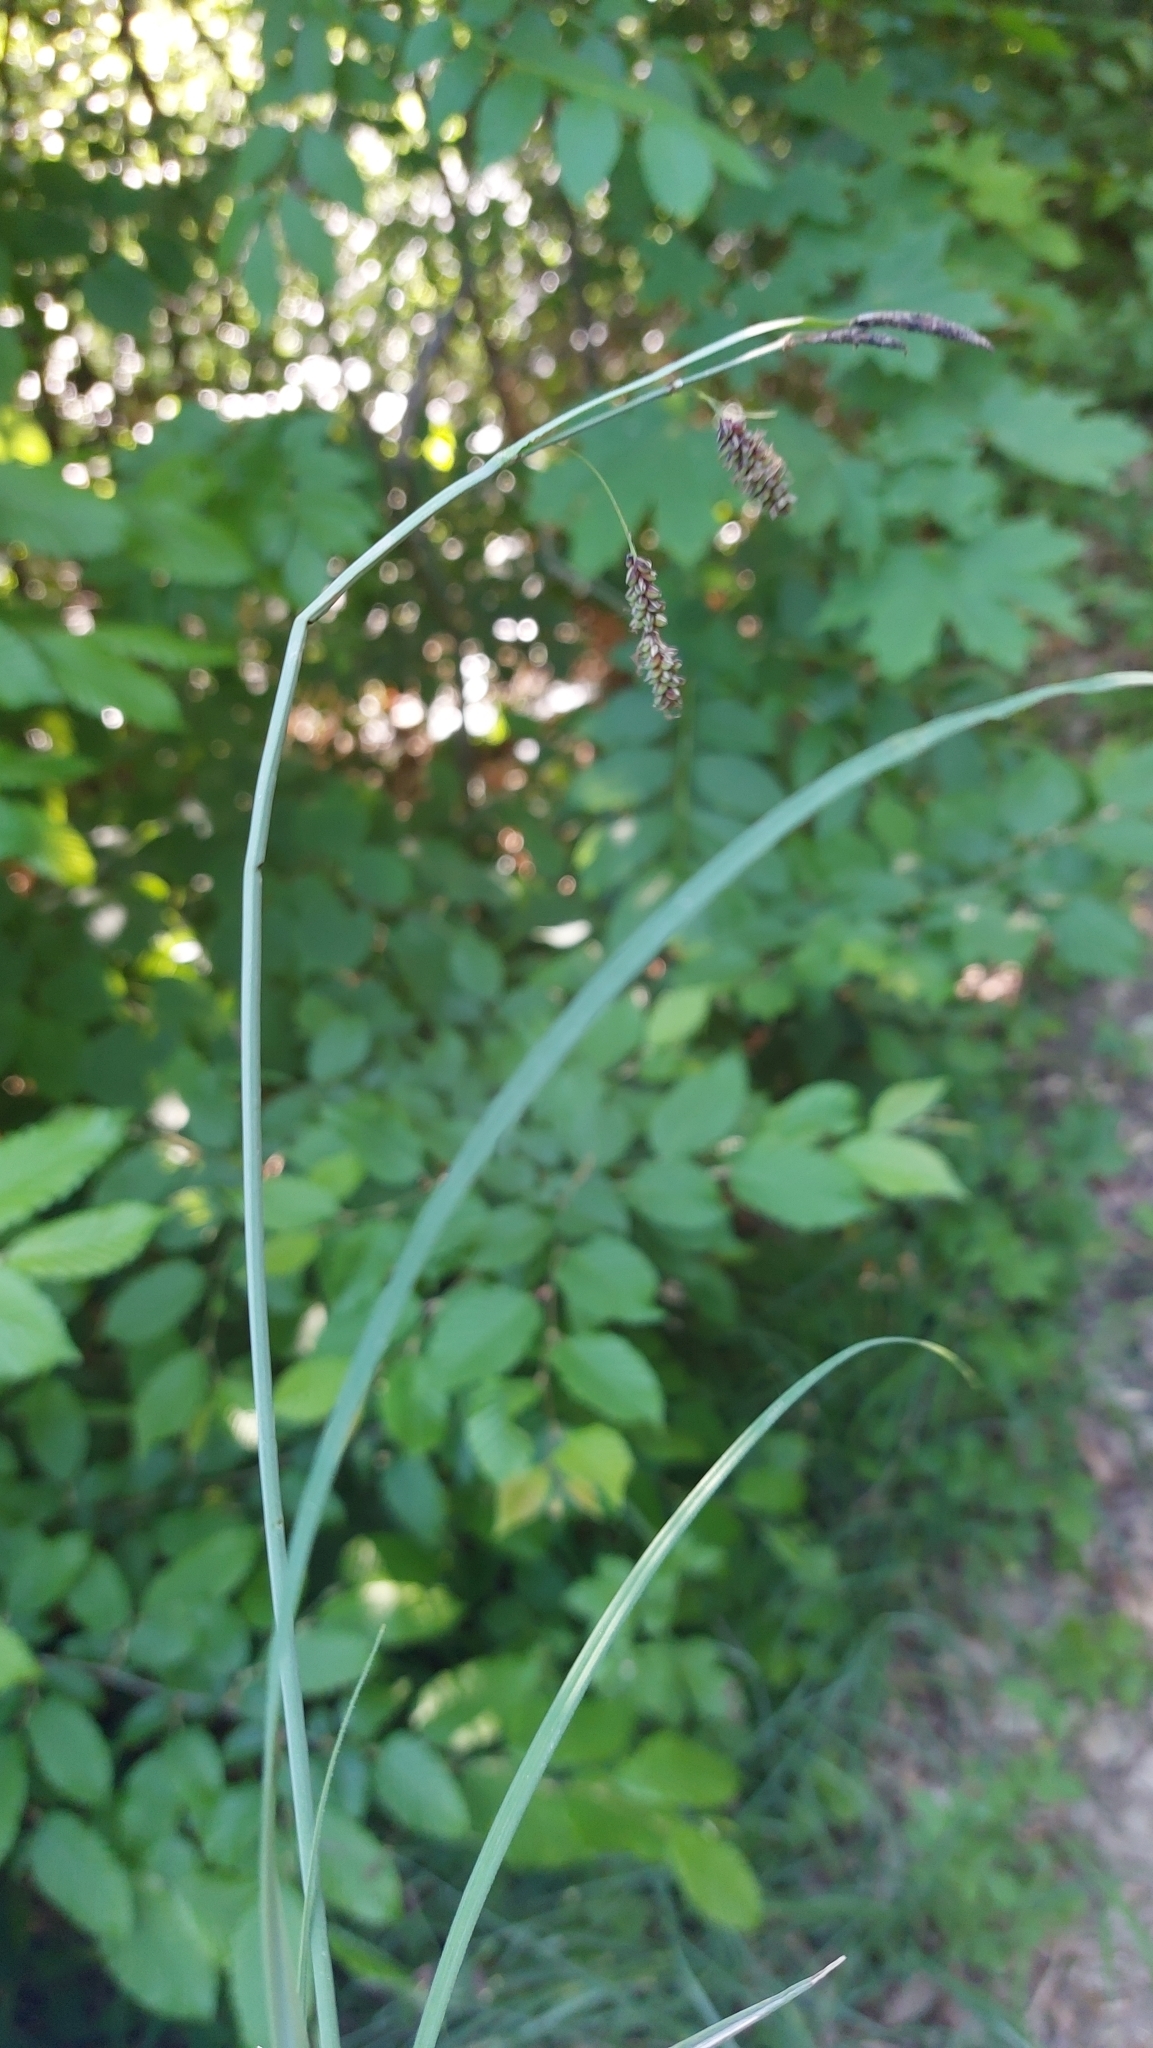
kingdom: Plantae
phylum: Tracheophyta
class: Liliopsida
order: Poales
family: Cyperaceae
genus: Carex
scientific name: Carex flacca
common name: Glaucous sedge
